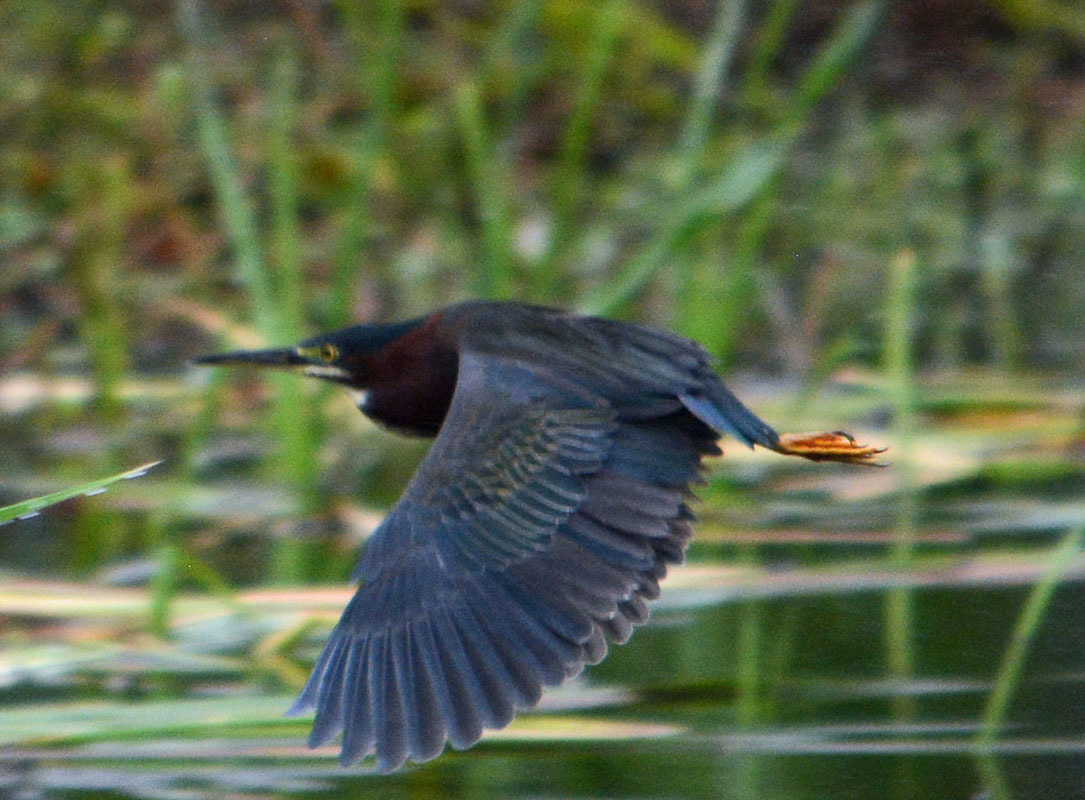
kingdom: Animalia
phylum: Chordata
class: Aves
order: Pelecaniformes
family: Ardeidae
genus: Butorides
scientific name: Butorides virescens
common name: Green heron
